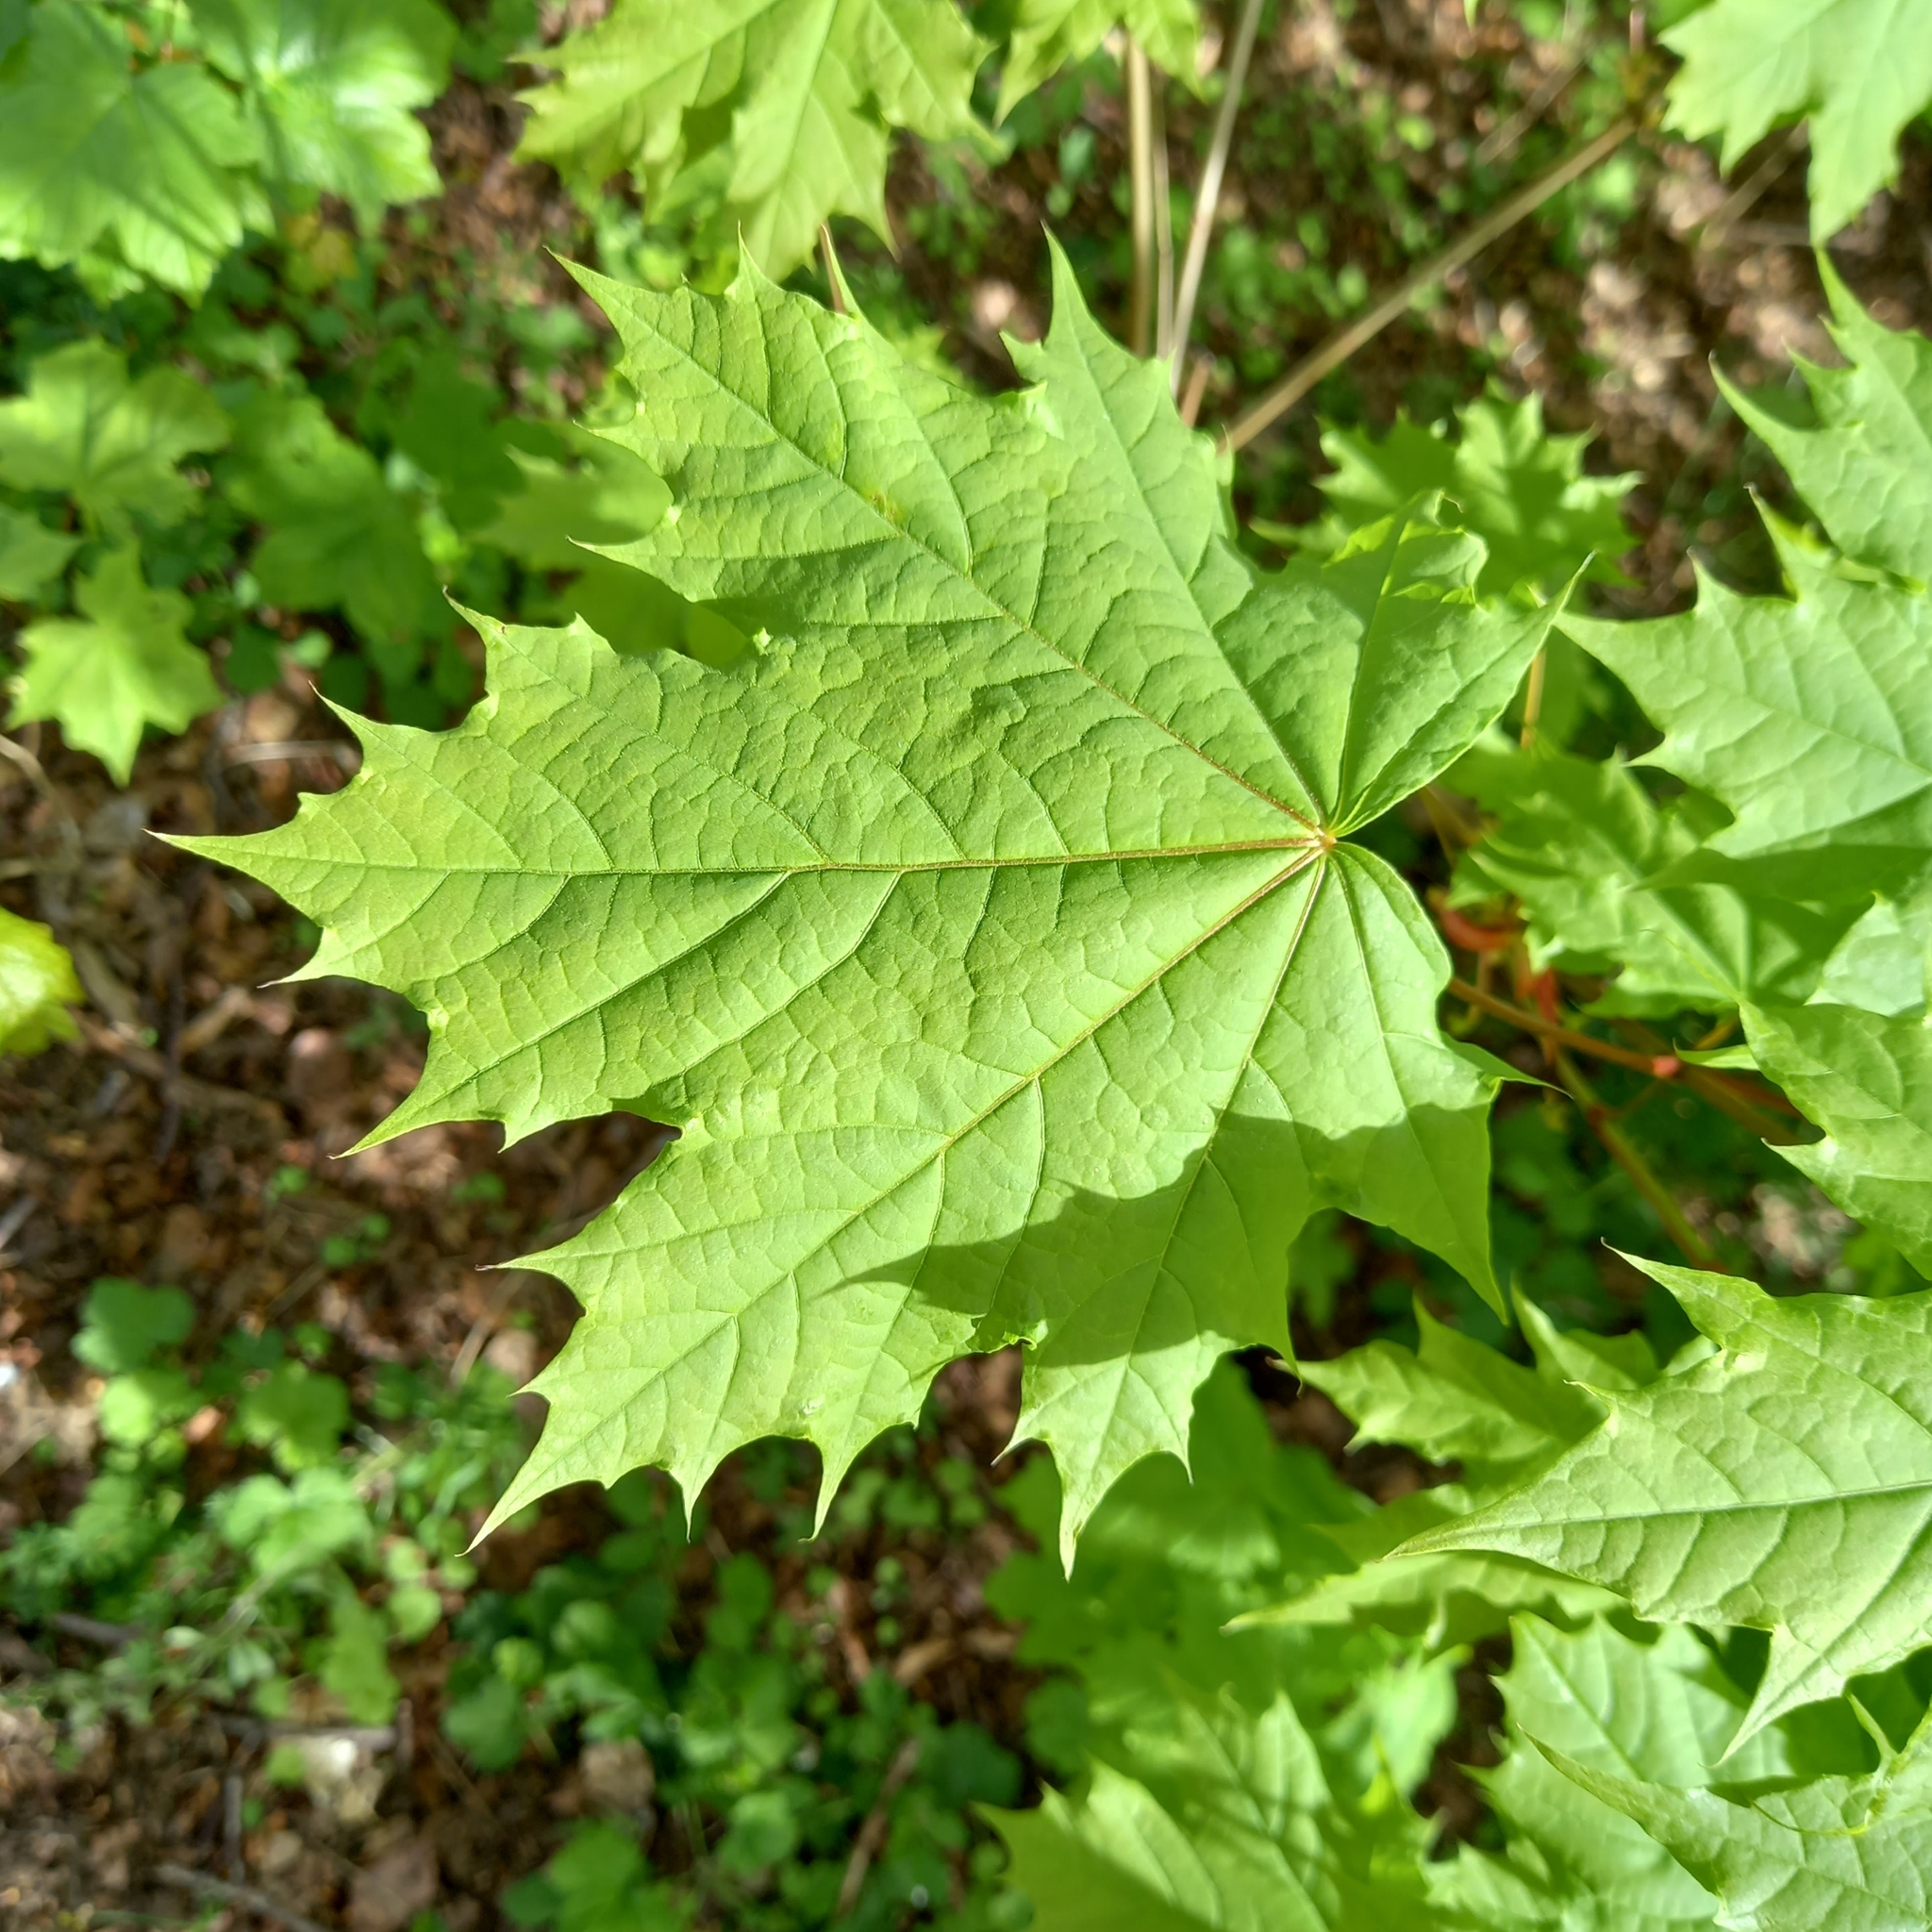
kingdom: Plantae
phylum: Tracheophyta
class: Magnoliopsida
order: Sapindales
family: Sapindaceae
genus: Acer
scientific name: Acer platanoides
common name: Norway maple
